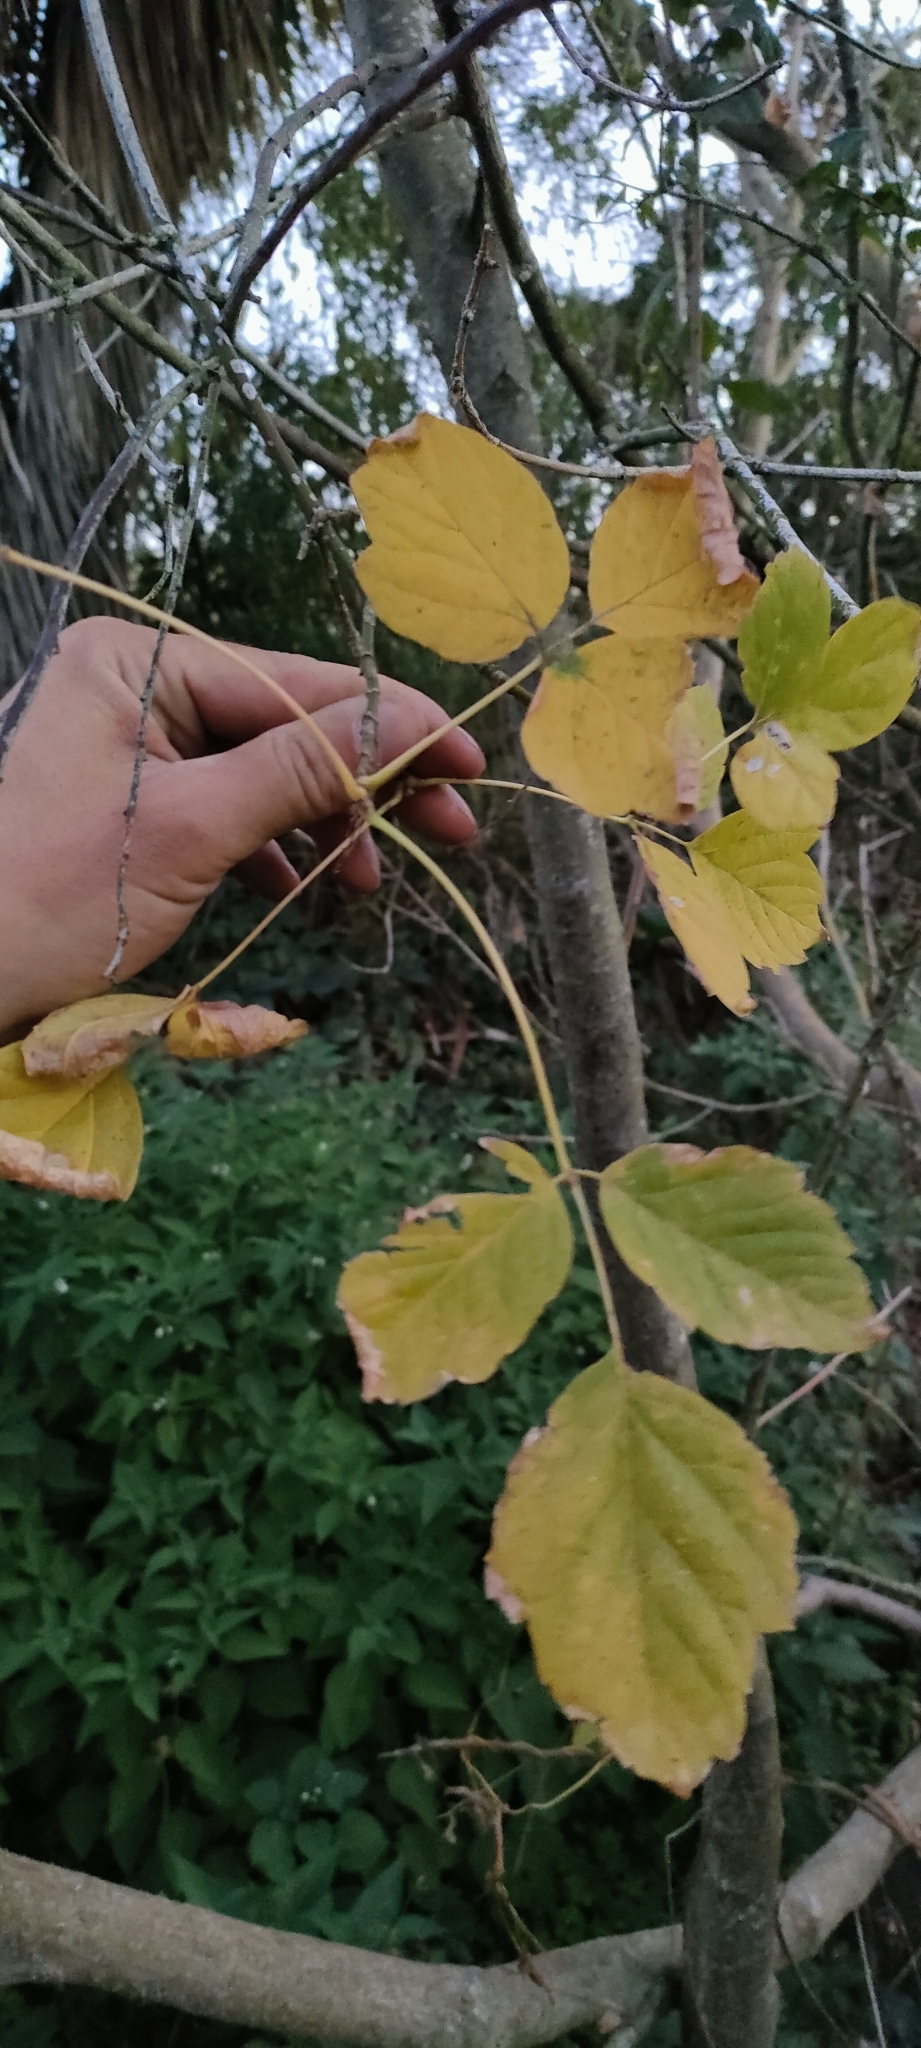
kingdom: Plantae
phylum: Tracheophyta
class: Magnoliopsida
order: Sapindales
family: Sapindaceae
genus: Acer
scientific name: Acer negundo
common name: Ashleaf maple
